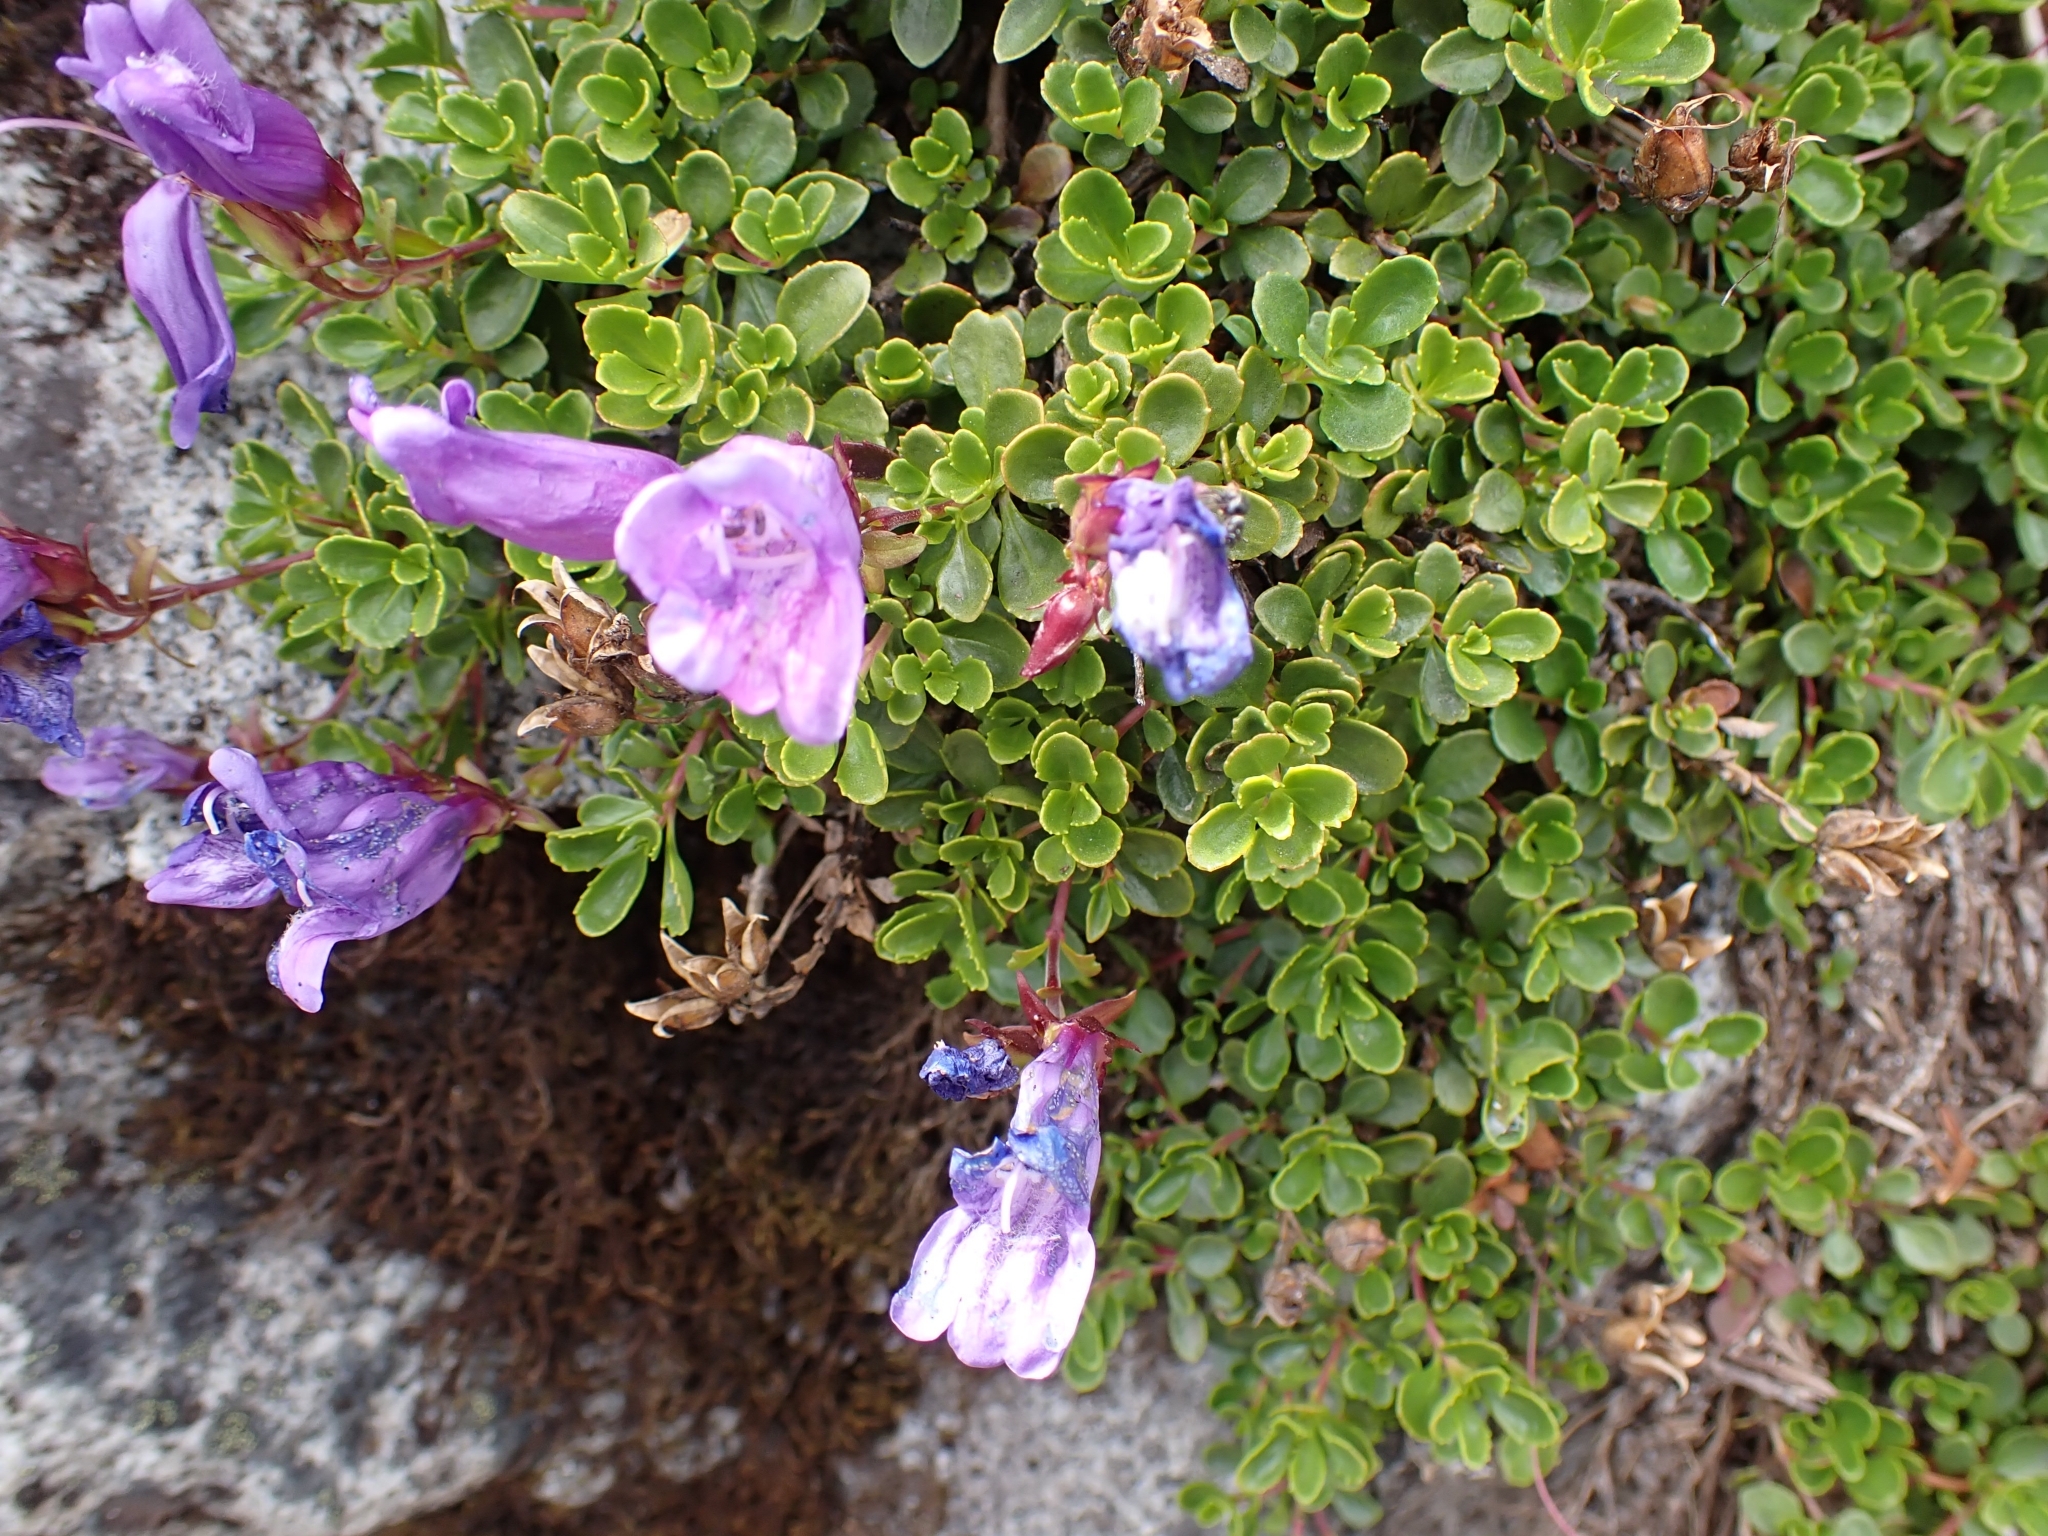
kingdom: Plantae
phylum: Tracheophyta
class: Magnoliopsida
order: Lamiales
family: Plantaginaceae
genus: Penstemon
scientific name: Penstemon davidsonii
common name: Davidson's penstemon
